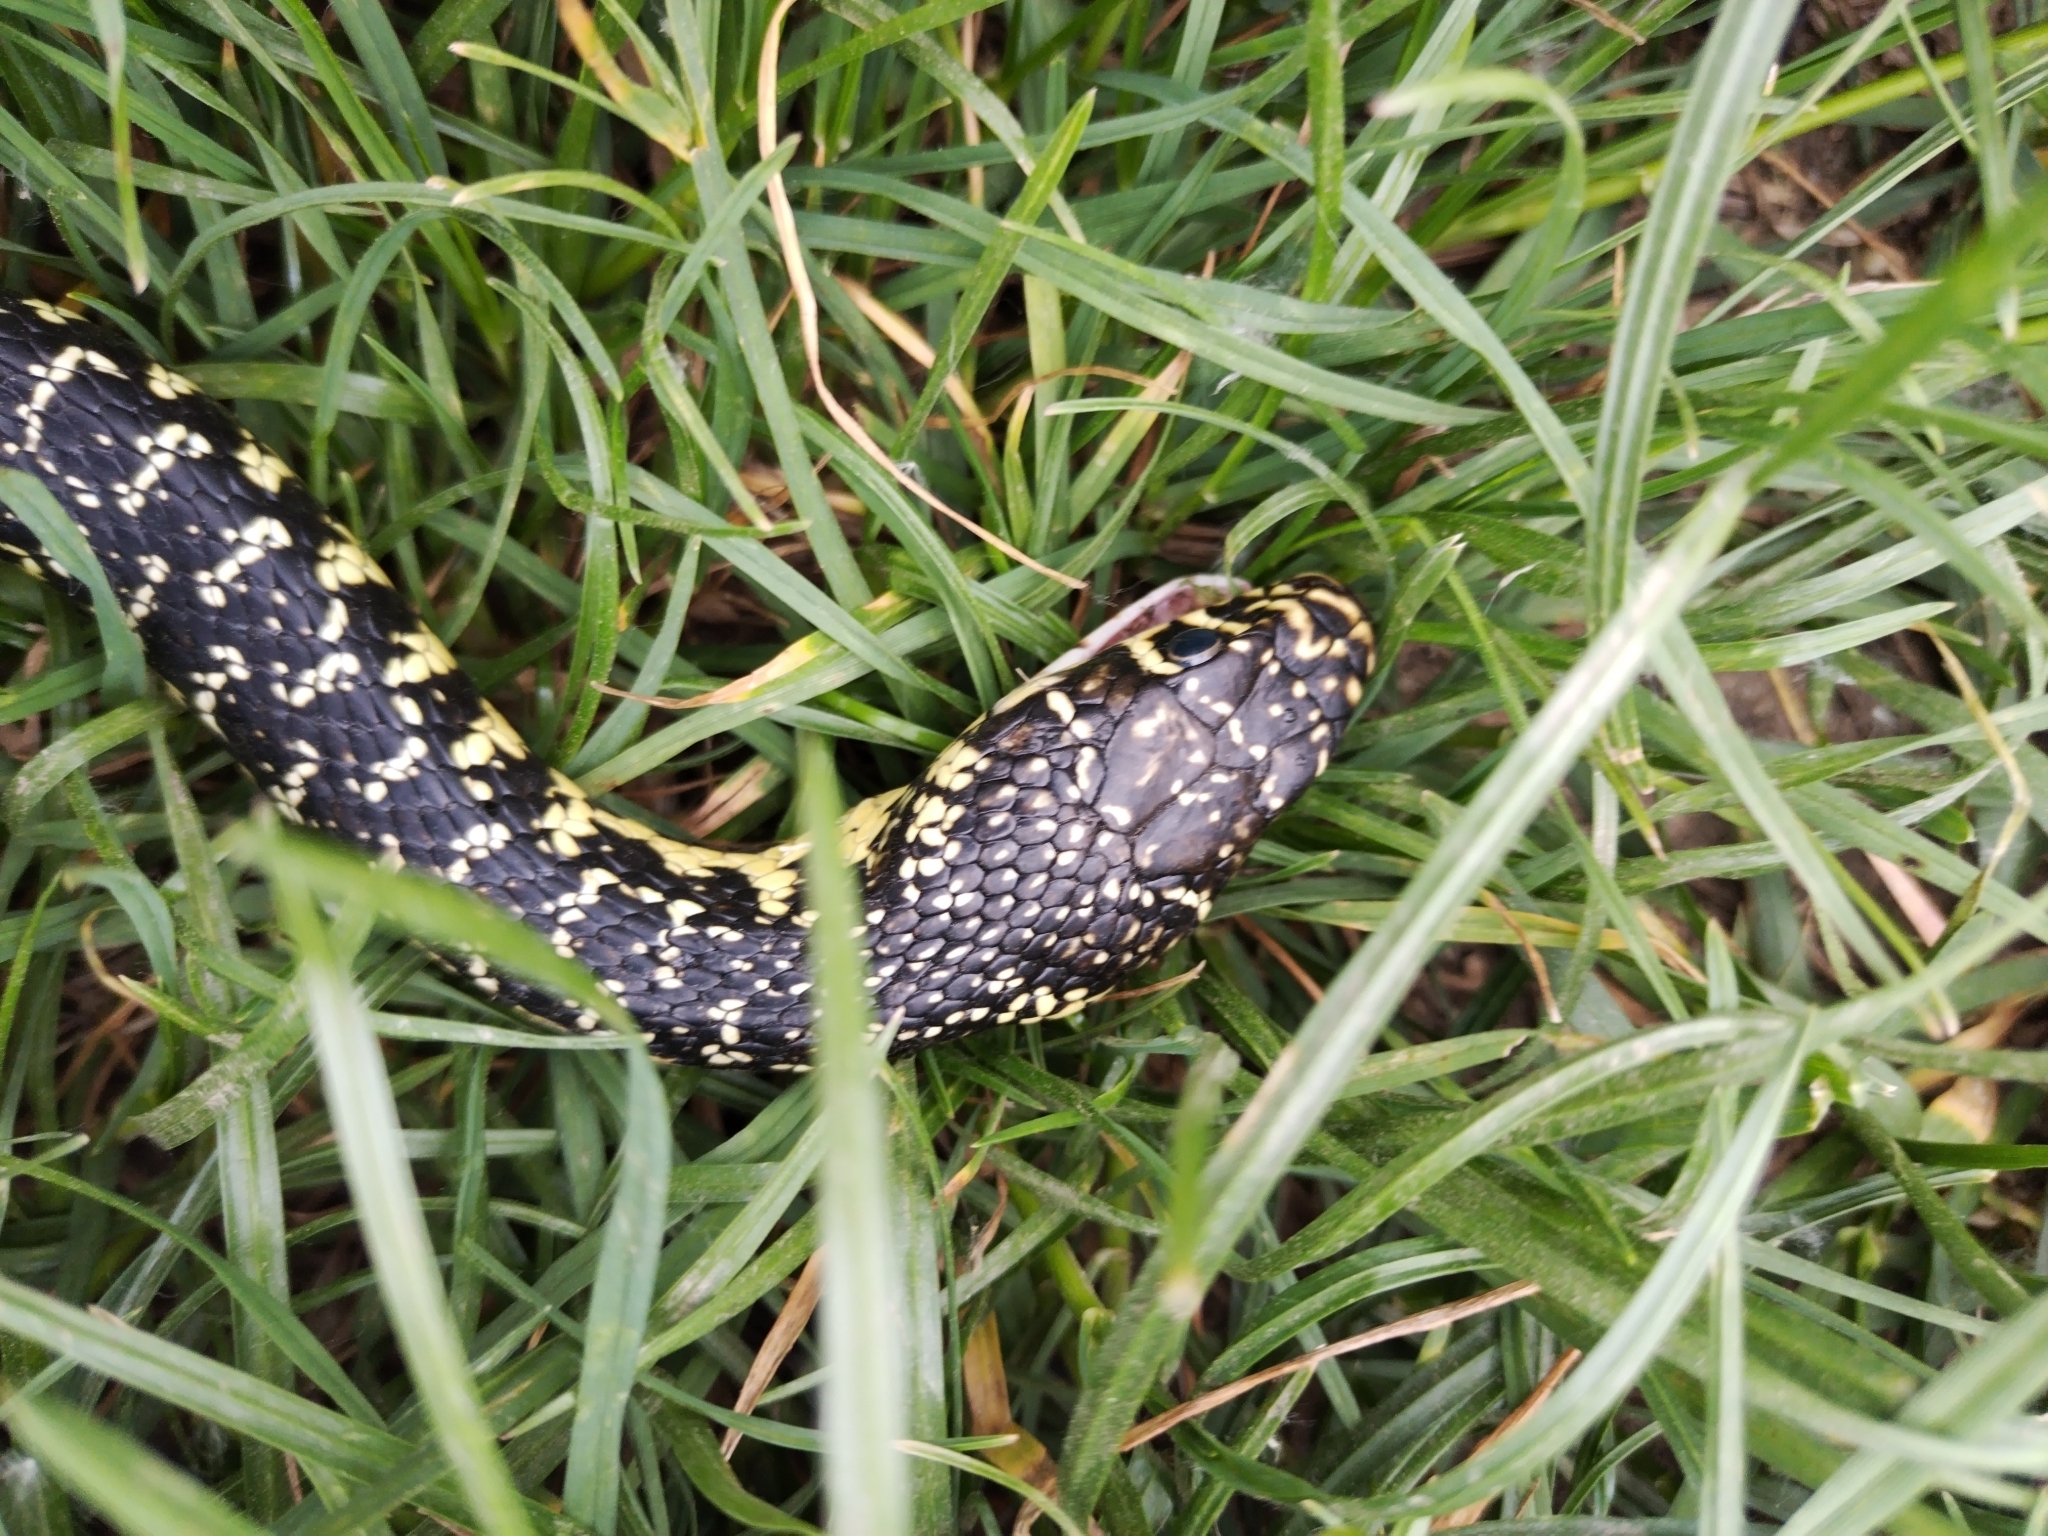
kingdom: Animalia
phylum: Chordata
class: Squamata
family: Colubridae
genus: Hierophis
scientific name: Hierophis viridiflavus
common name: Green whip snake
